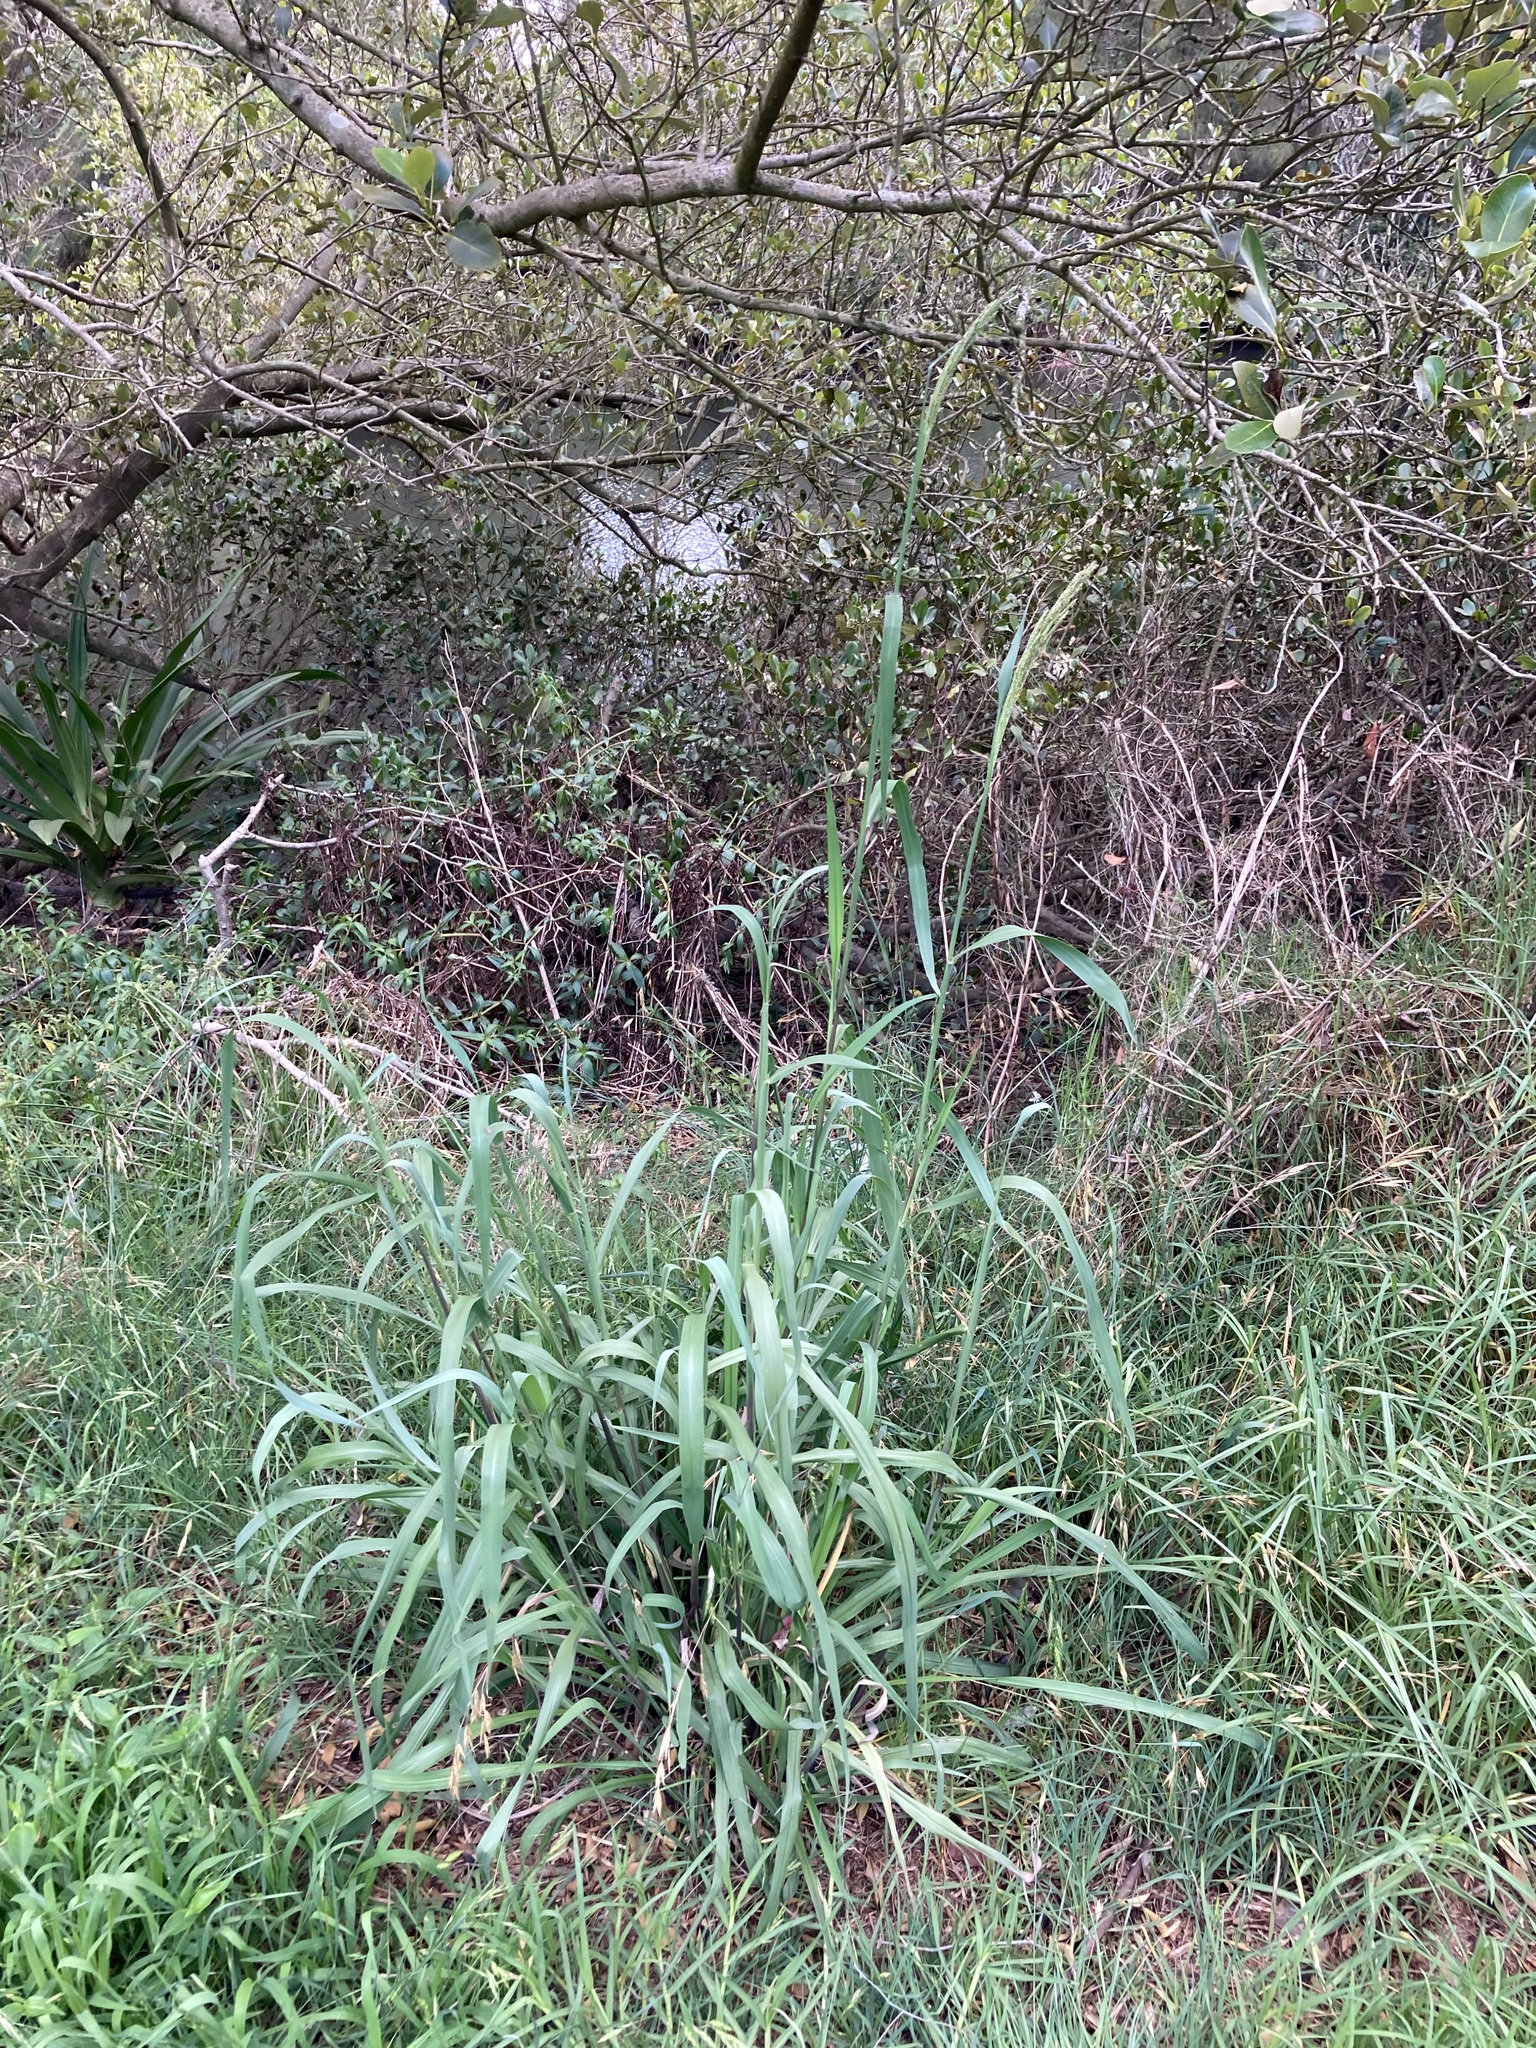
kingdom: Plantae
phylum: Tracheophyta
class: Liliopsida
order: Poales
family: Poaceae
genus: Paspalum
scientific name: Paspalum urvillei
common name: Vasey's grass
